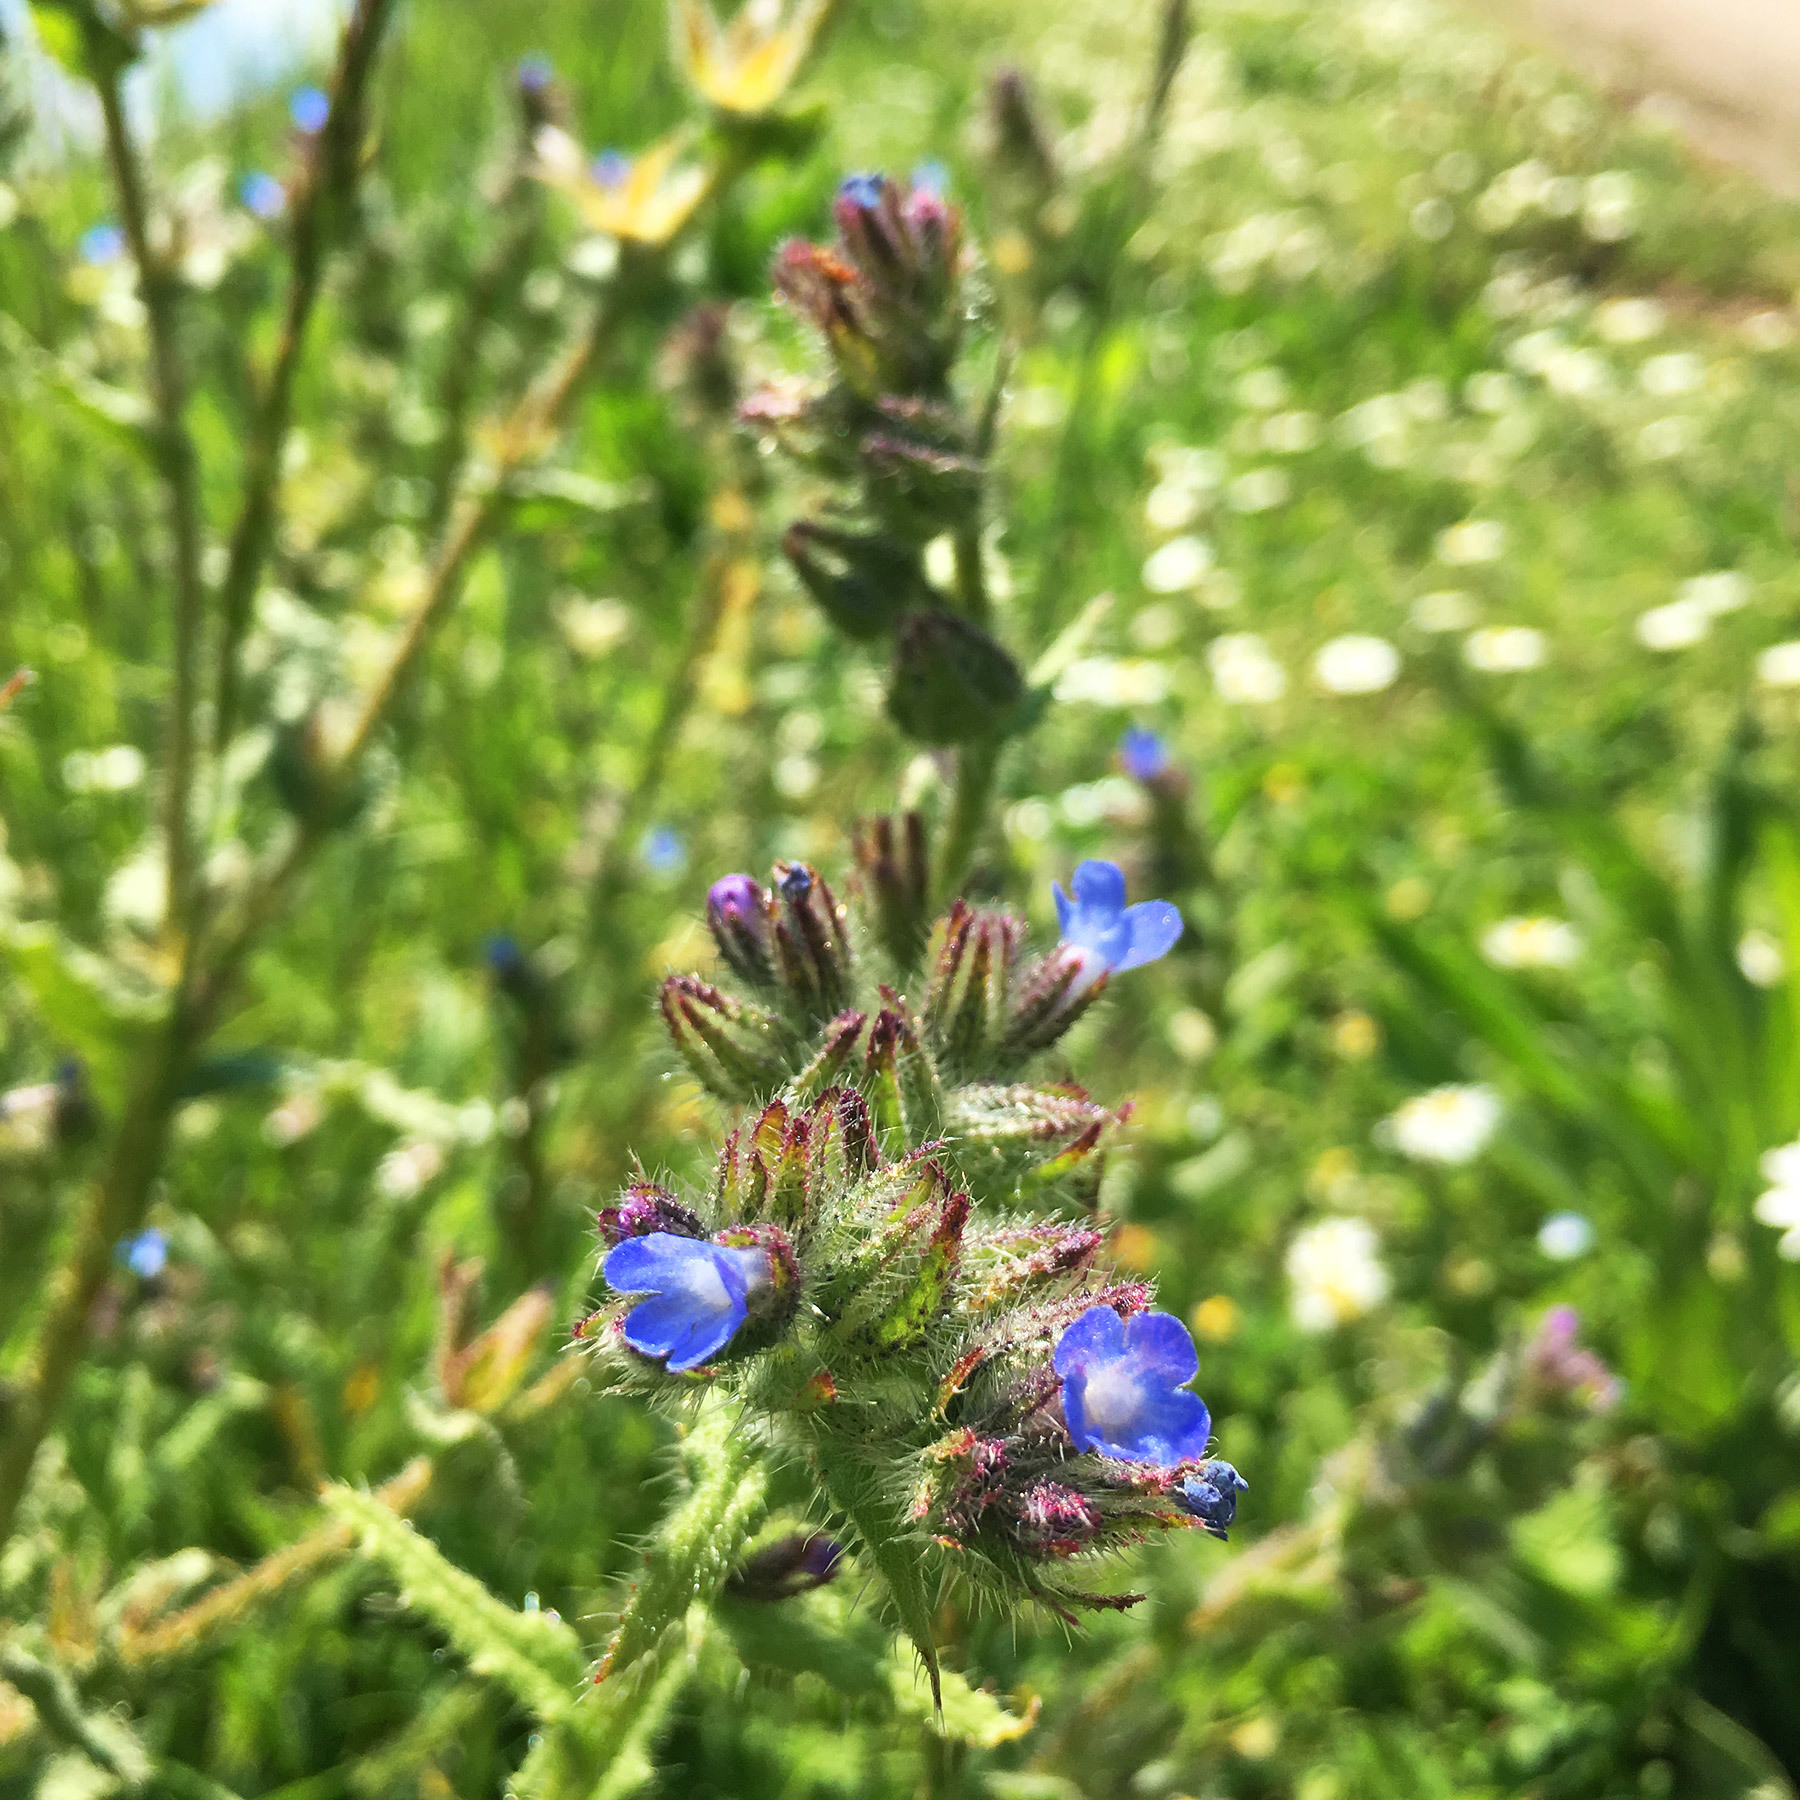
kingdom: Plantae
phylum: Tracheophyta
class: Magnoliopsida
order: Boraginales
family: Boraginaceae
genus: Anchusa
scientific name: Anchusa officinalis
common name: Alkanet
